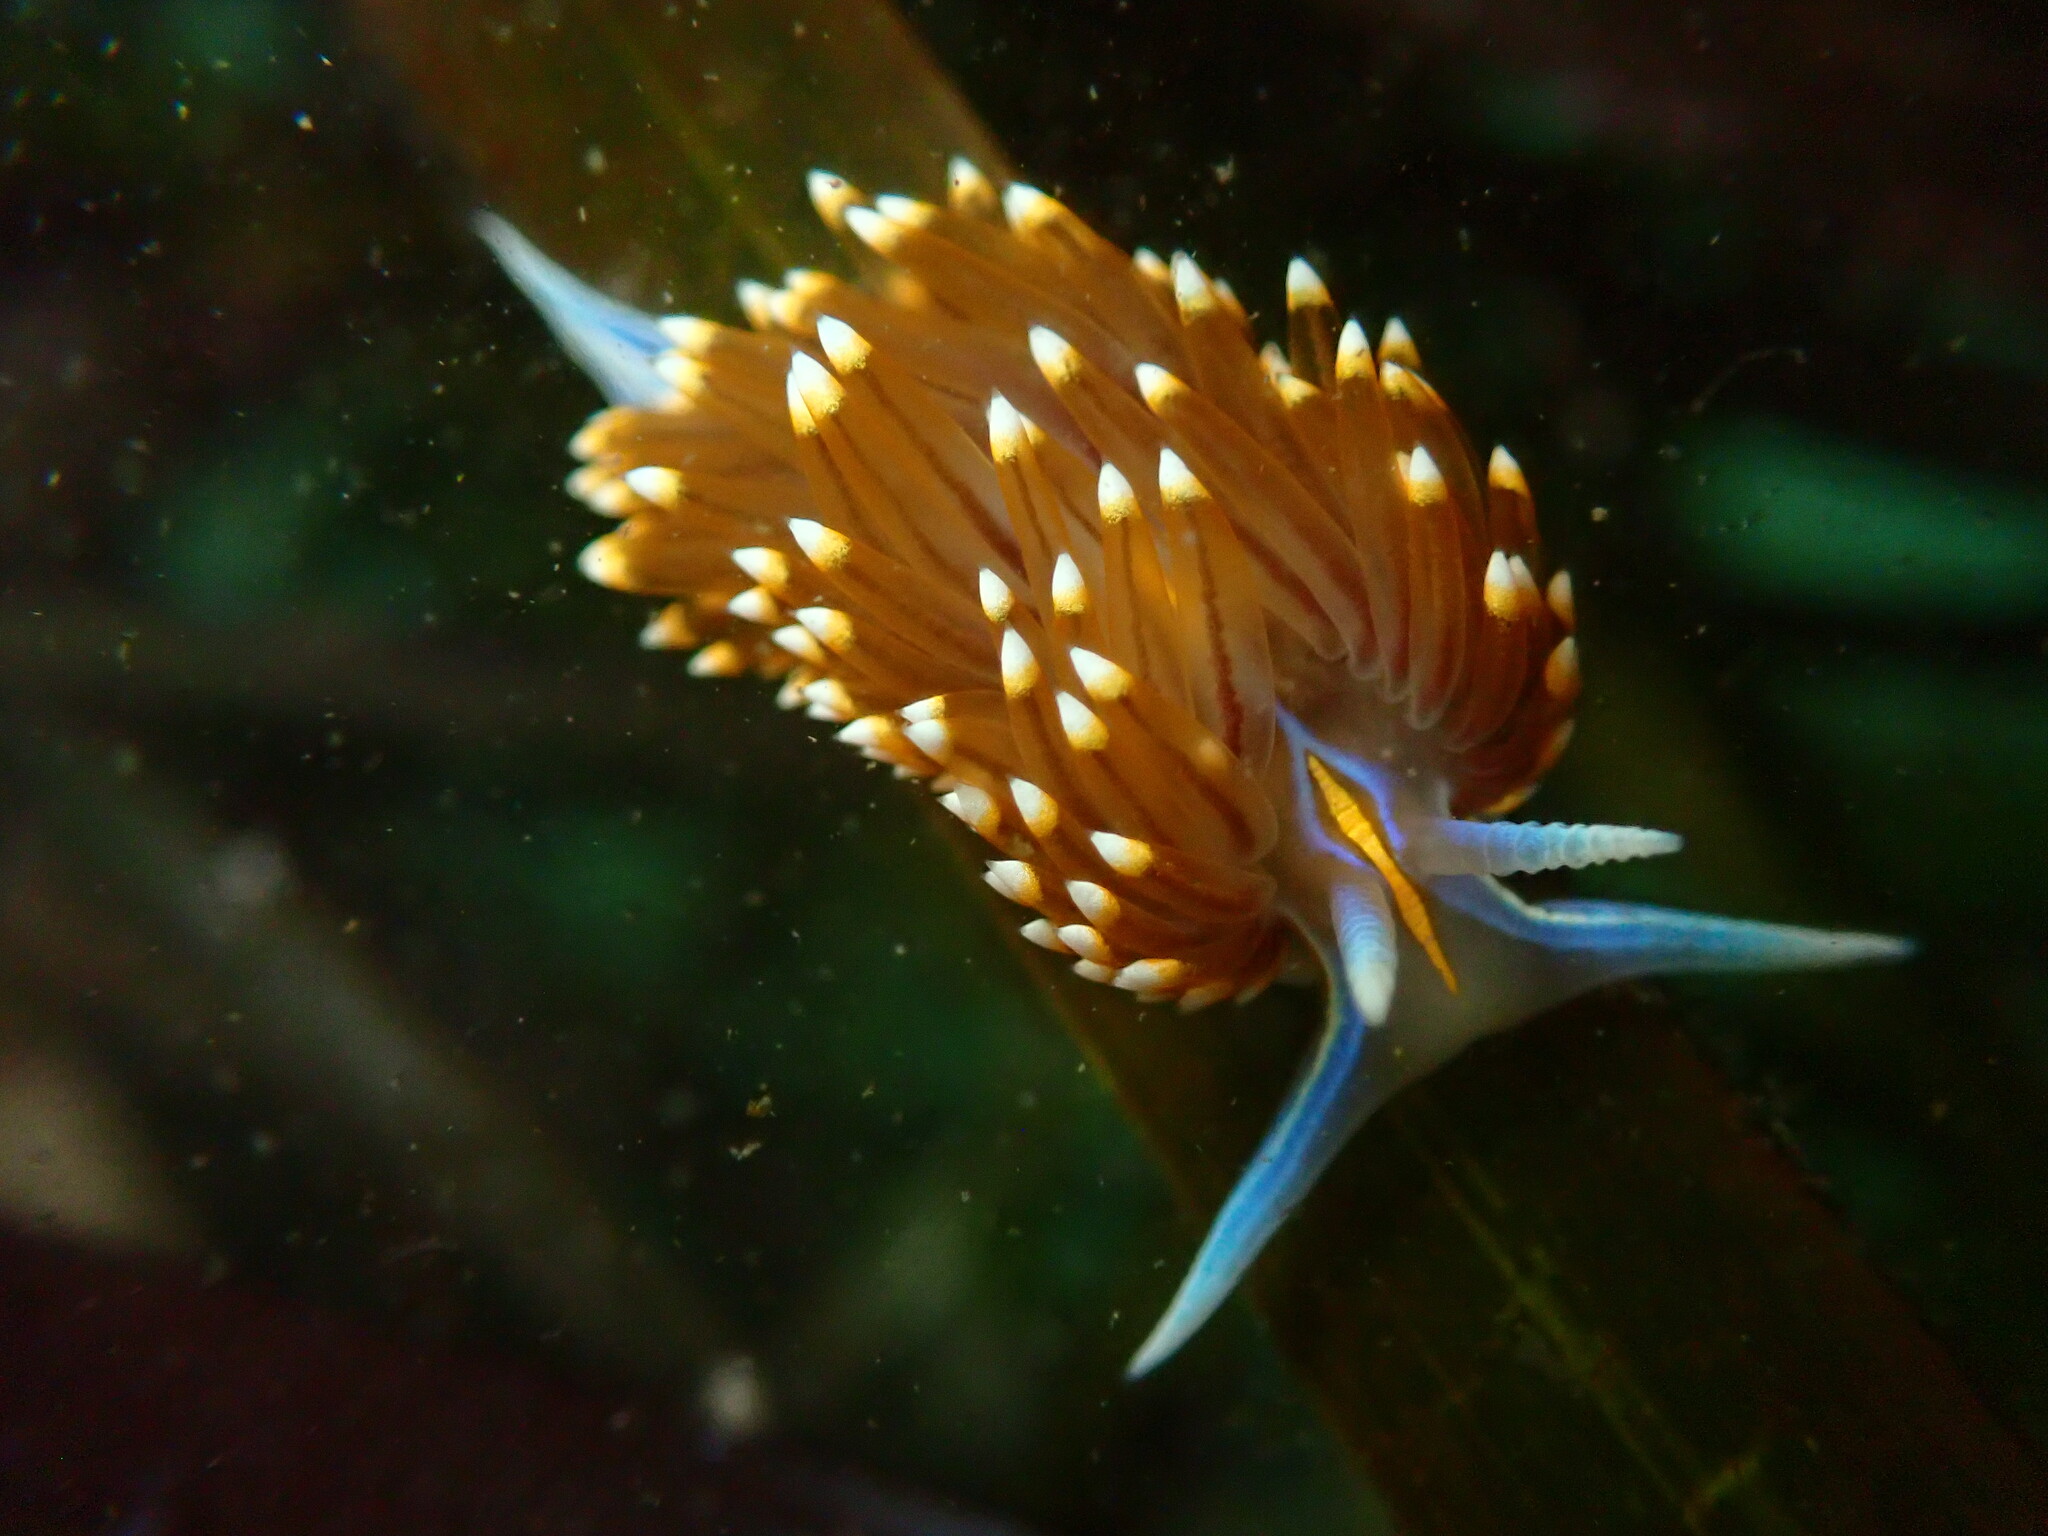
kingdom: Animalia
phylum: Mollusca
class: Gastropoda
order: Nudibranchia
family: Myrrhinidae
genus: Hermissenda
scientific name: Hermissenda opalescens
